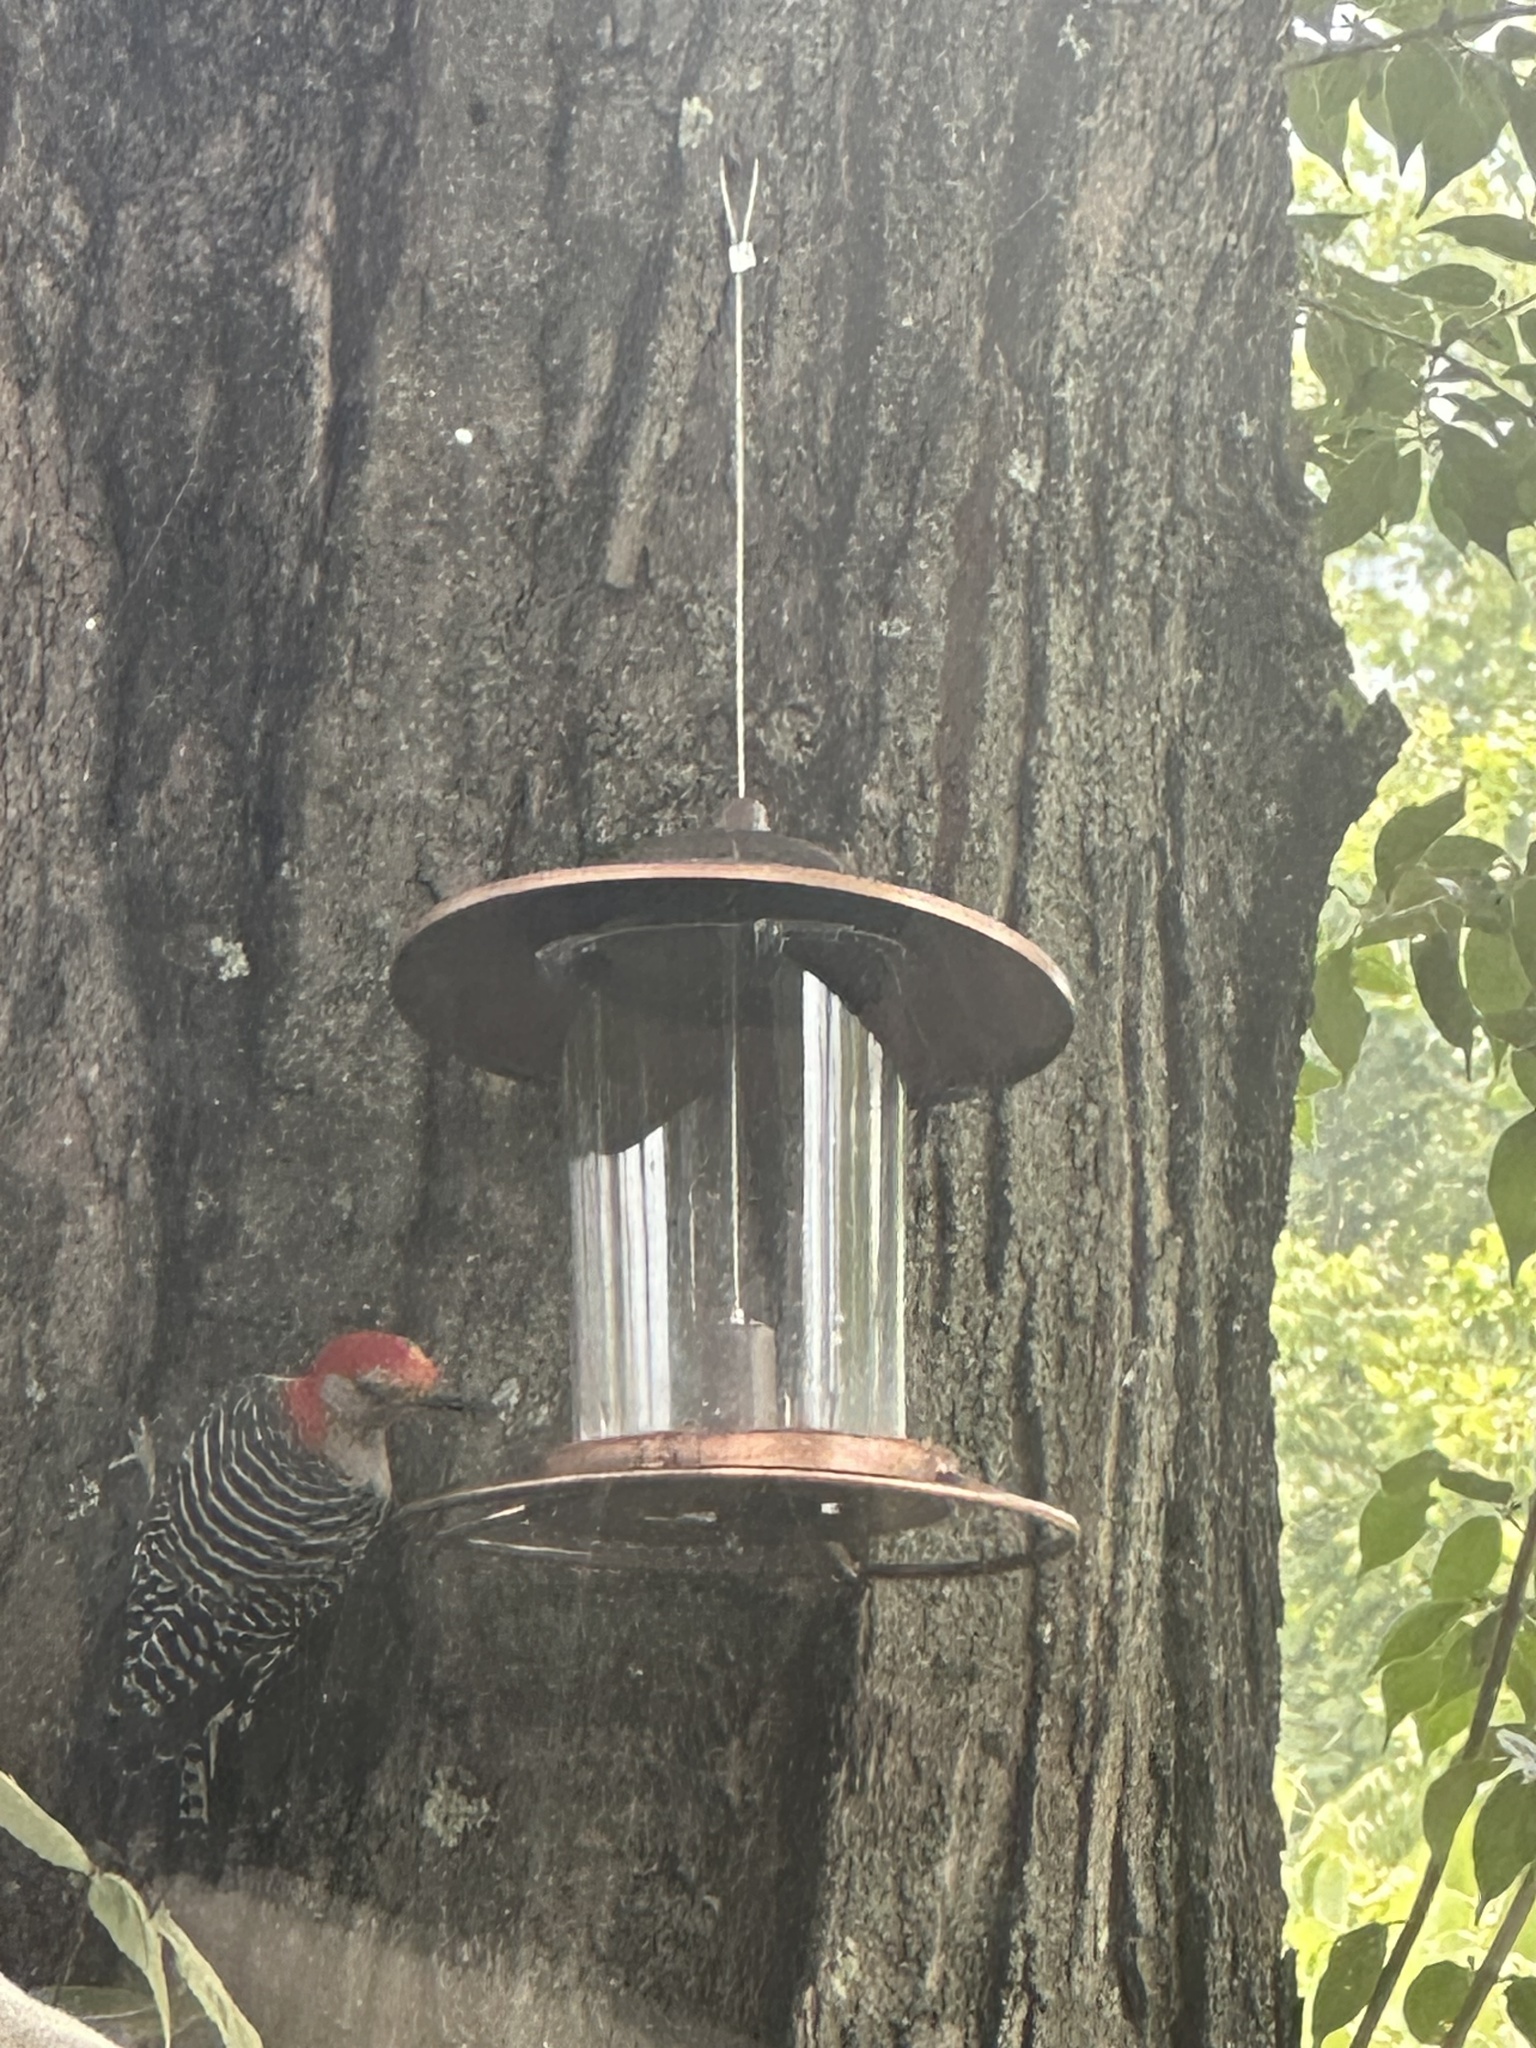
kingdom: Animalia
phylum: Chordata
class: Aves
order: Piciformes
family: Picidae
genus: Melanerpes
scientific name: Melanerpes carolinus
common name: Red-bellied woodpecker
